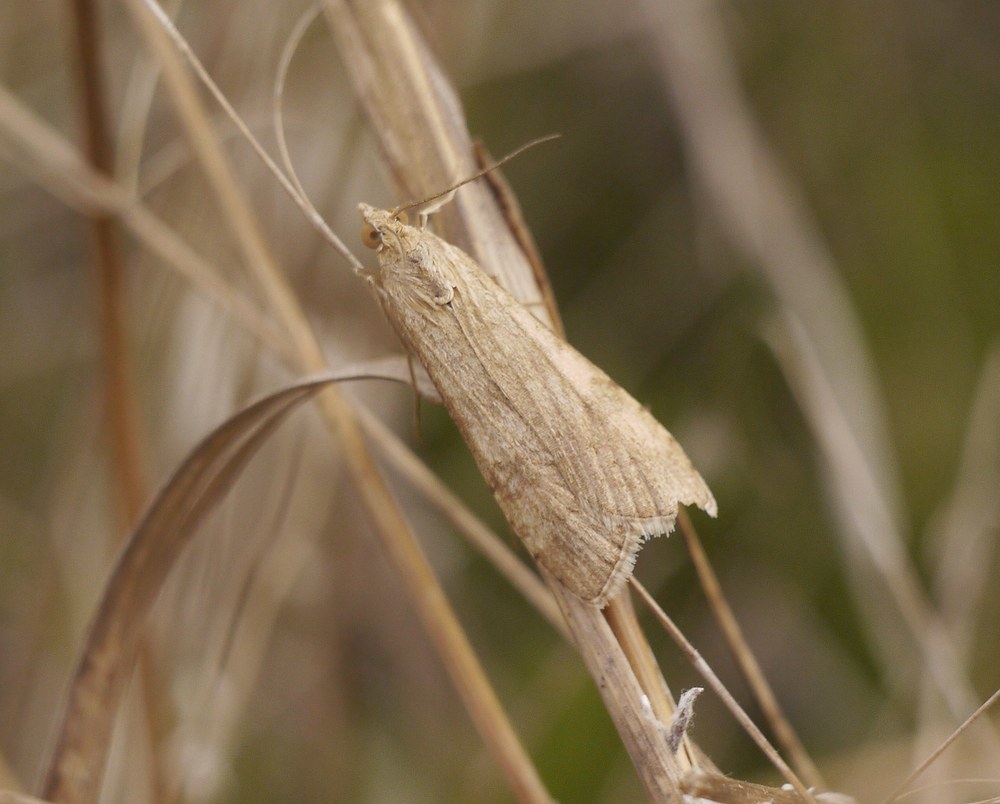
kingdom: Animalia
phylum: Arthropoda
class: Insecta
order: Lepidoptera
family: Crambidae
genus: Nomophila
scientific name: Nomophila noctuella
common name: Rush veneer
